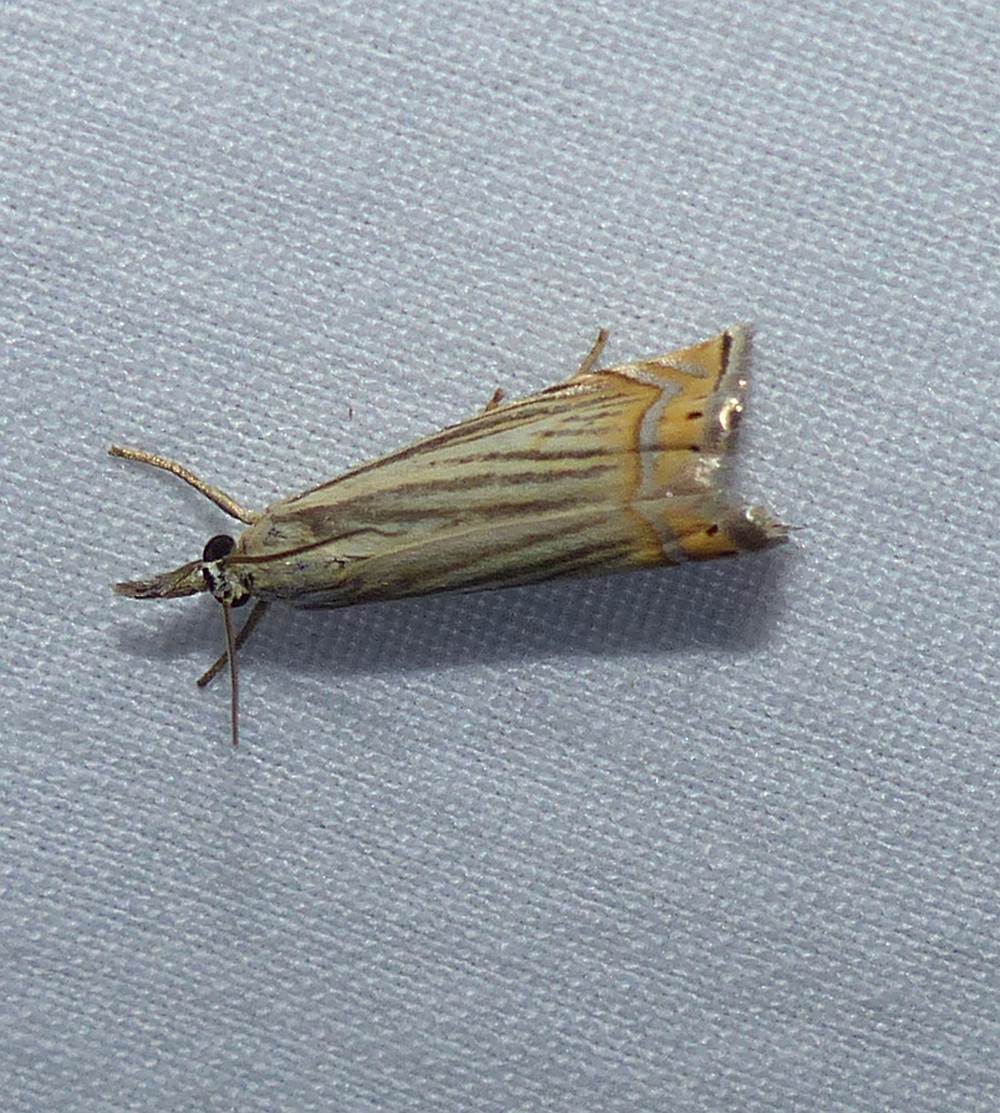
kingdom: Animalia
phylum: Arthropoda
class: Insecta
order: Lepidoptera
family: Crambidae
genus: Chrysoteuchia
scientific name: Chrysoteuchia topiarius
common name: Topiary grass-veneer
